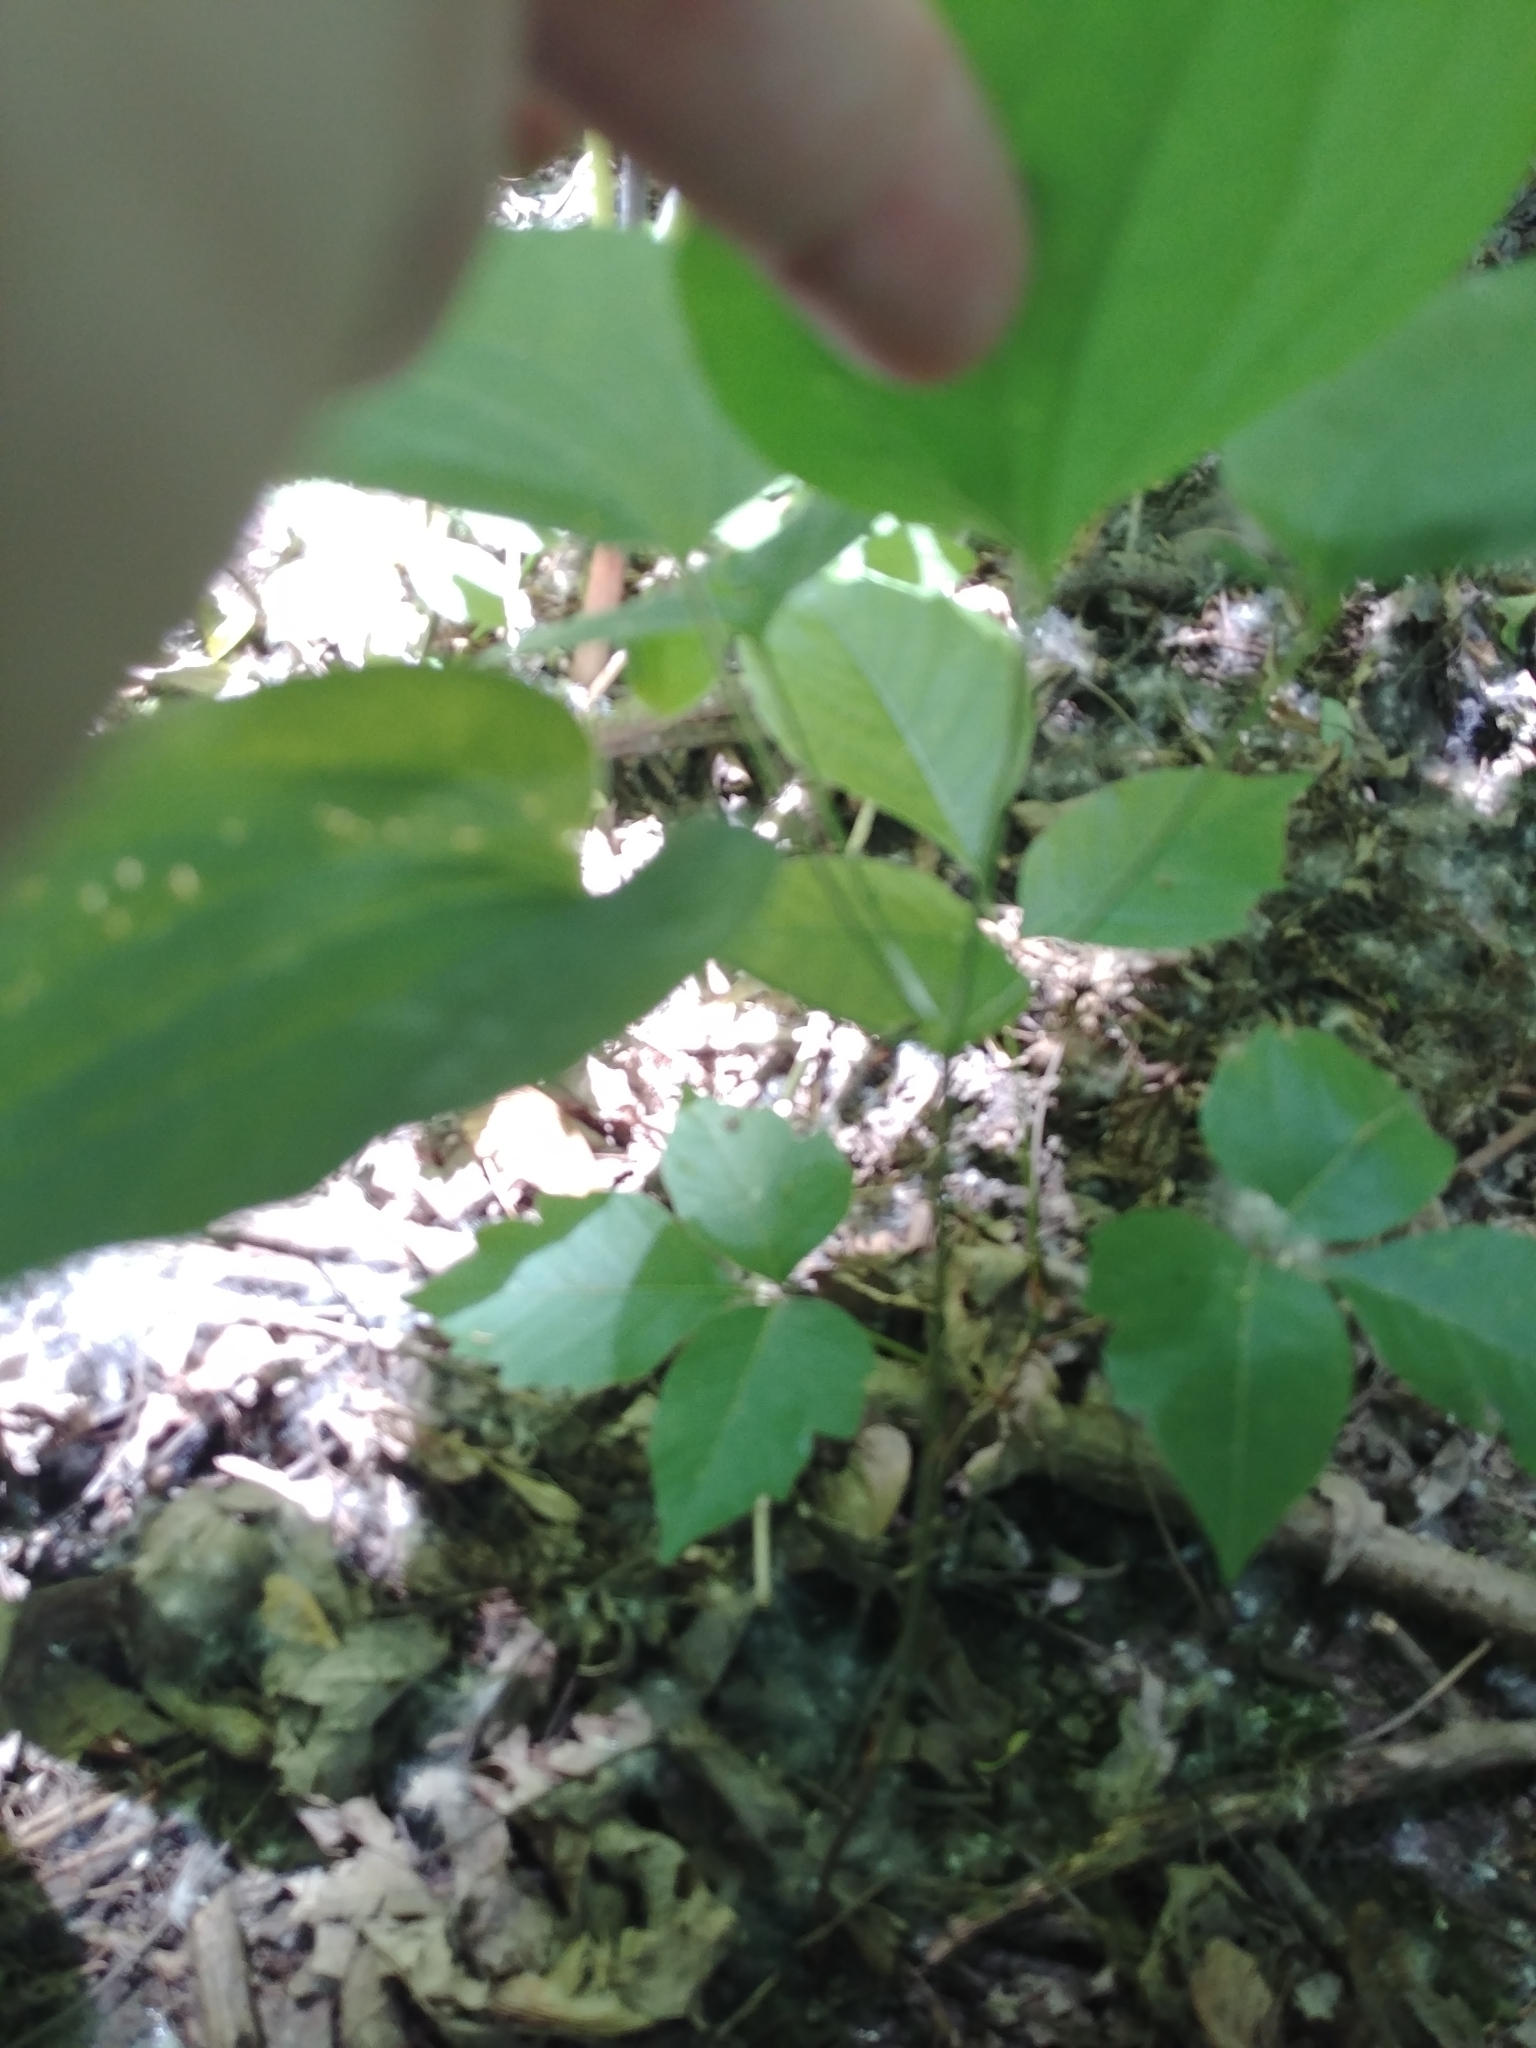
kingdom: Plantae
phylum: Tracheophyta
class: Magnoliopsida
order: Asterales
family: Asteraceae
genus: Ambrosia
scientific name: Ambrosia trifida
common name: Giant ragweed
